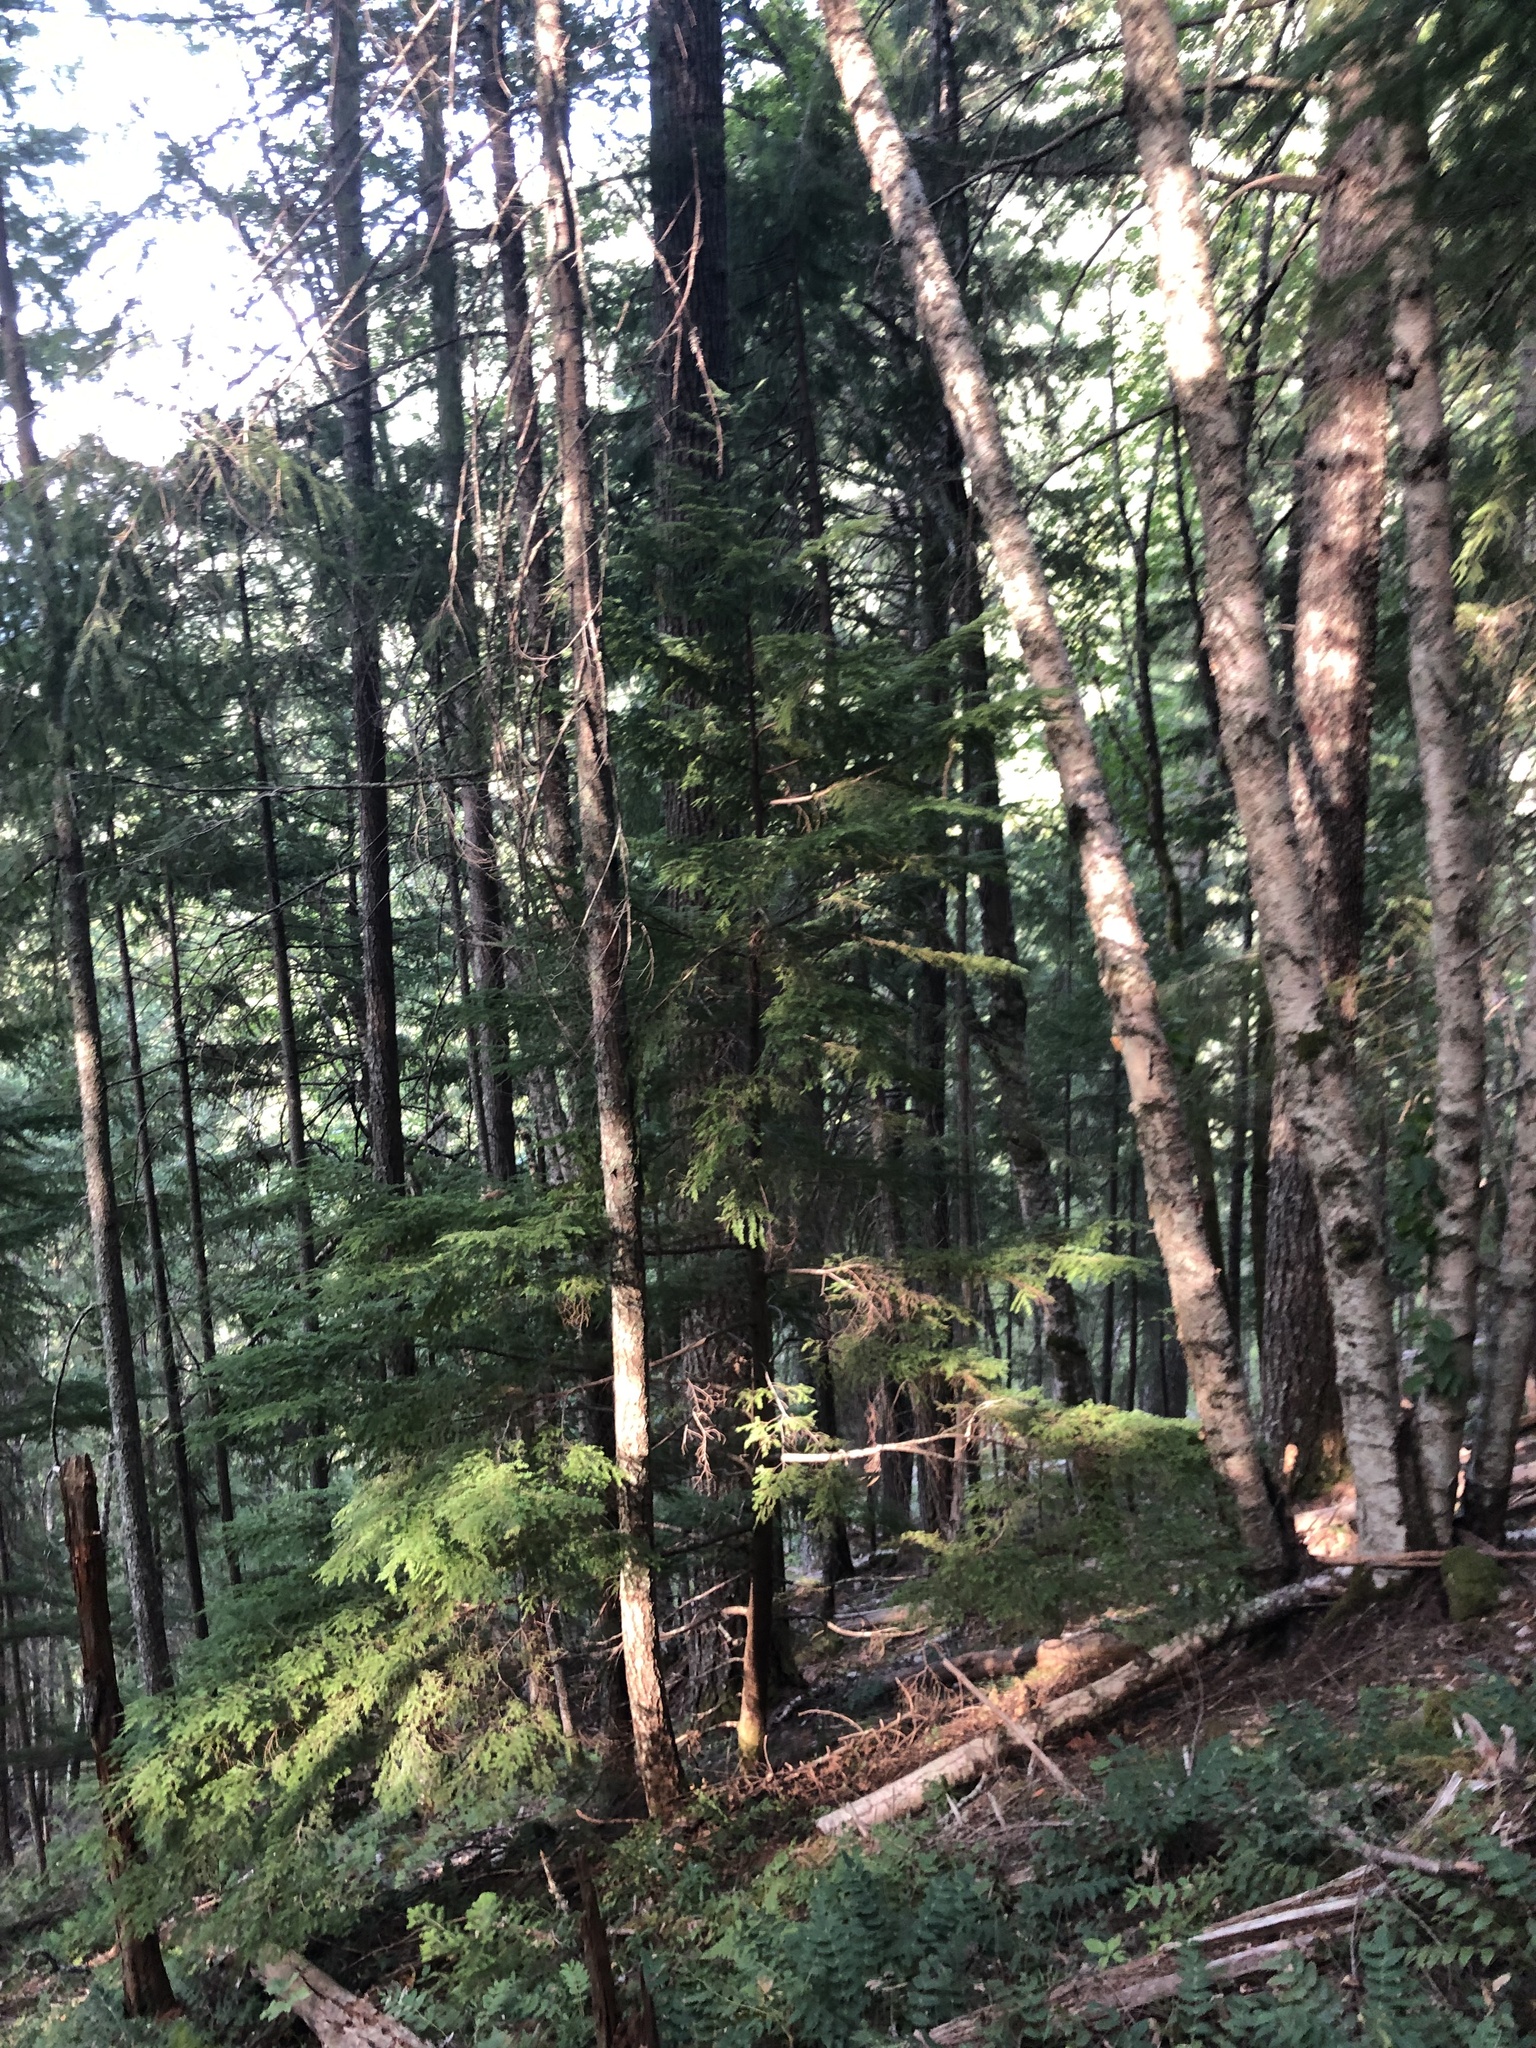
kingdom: Plantae
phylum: Tracheophyta
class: Pinopsida
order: Pinales
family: Pinaceae
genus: Tsuga
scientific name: Tsuga heterophylla
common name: Western hemlock
